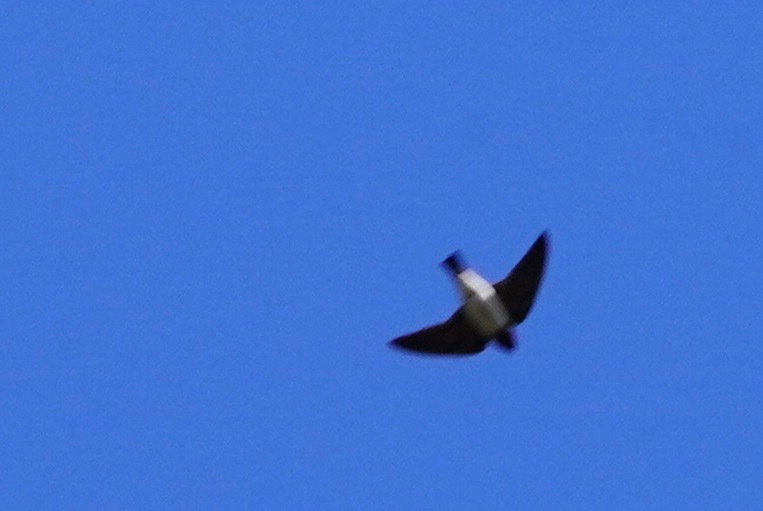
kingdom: Animalia
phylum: Chordata
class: Aves
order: Passeriformes
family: Hirundinidae
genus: Petrochelidon
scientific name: Petrochelidon pyrrhonota
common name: American cliff swallow
